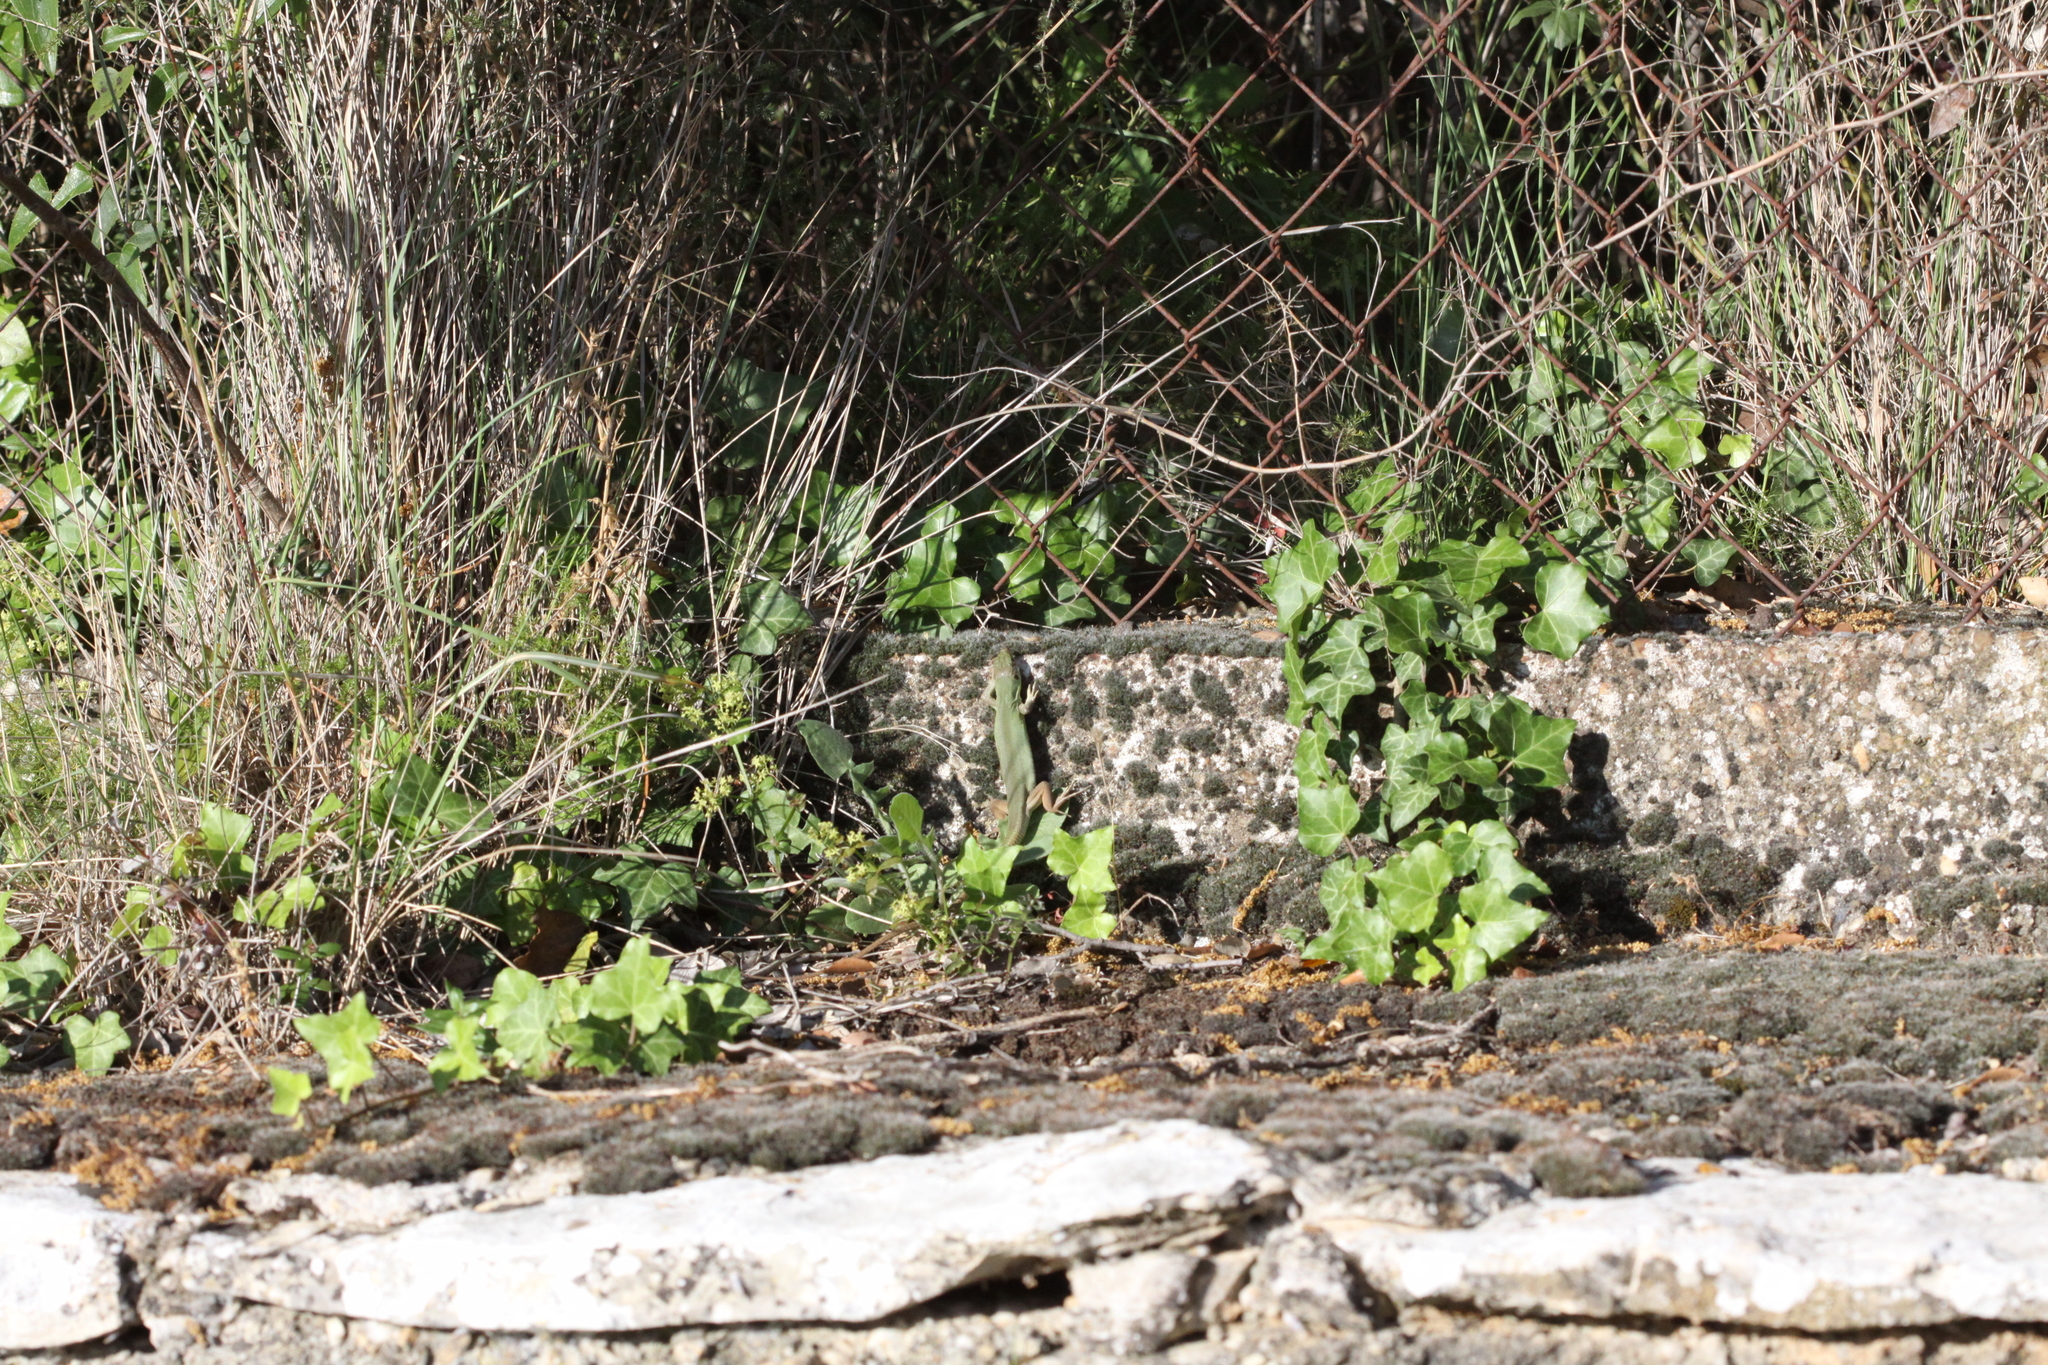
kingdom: Animalia
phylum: Chordata
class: Squamata
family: Lacertidae
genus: Lacerta
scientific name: Lacerta bilineata
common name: Western green lizard
